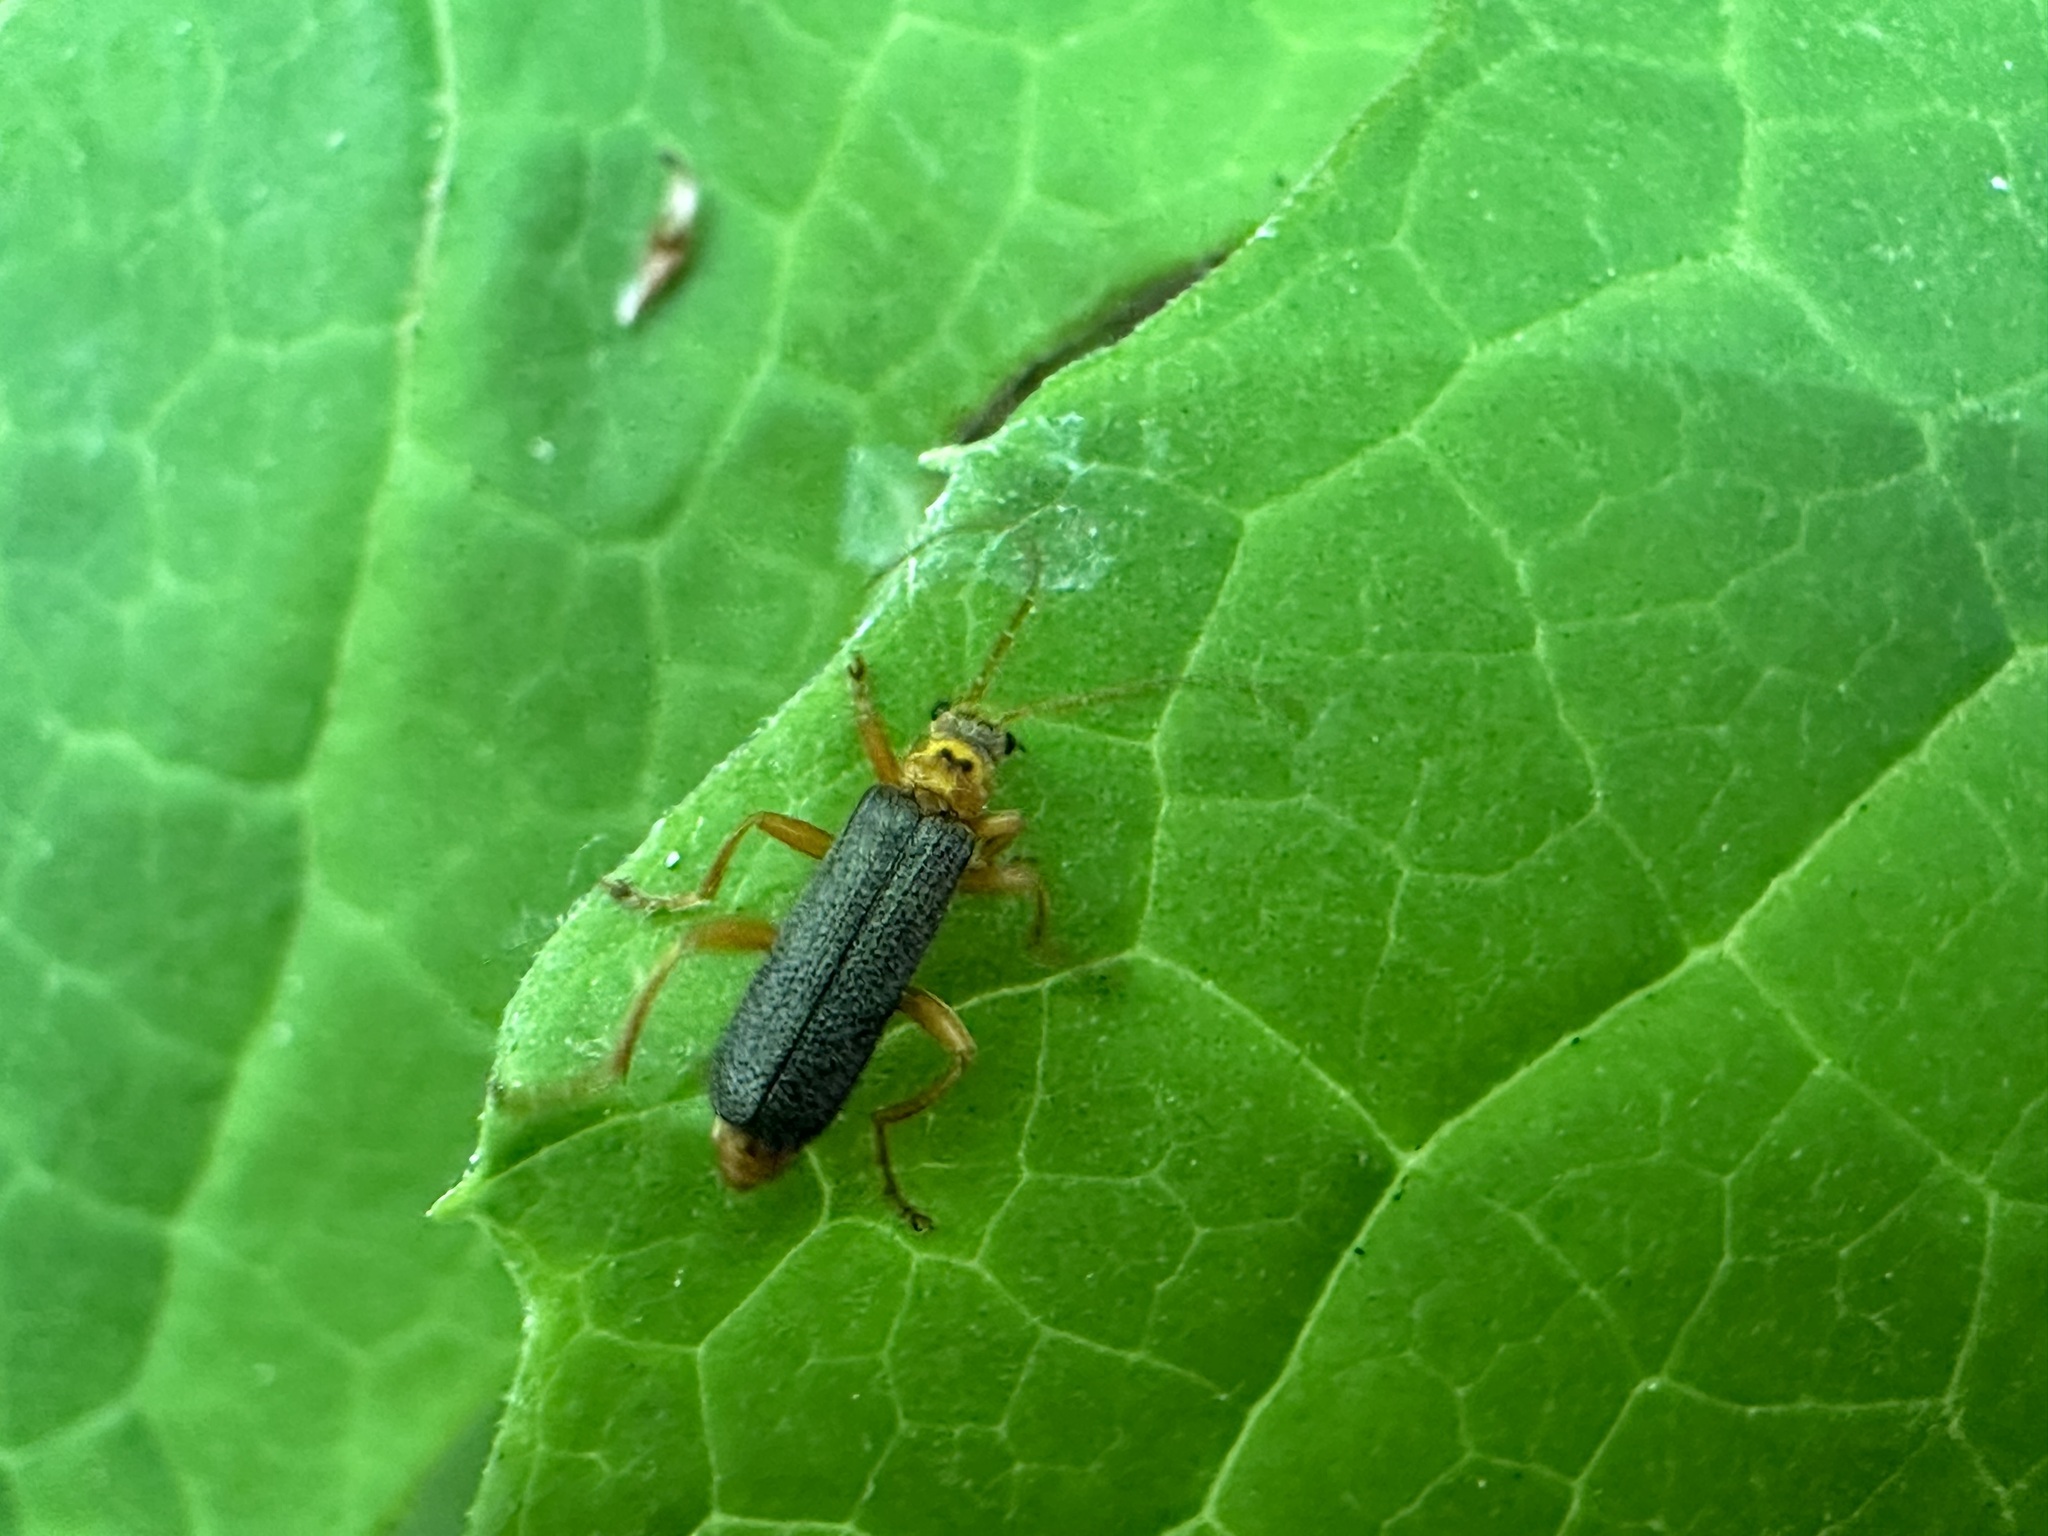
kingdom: Animalia
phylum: Arthropoda
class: Insecta
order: Coleoptera
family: Cantharidae
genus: Cultellunguis
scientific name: Cultellunguis americanus
